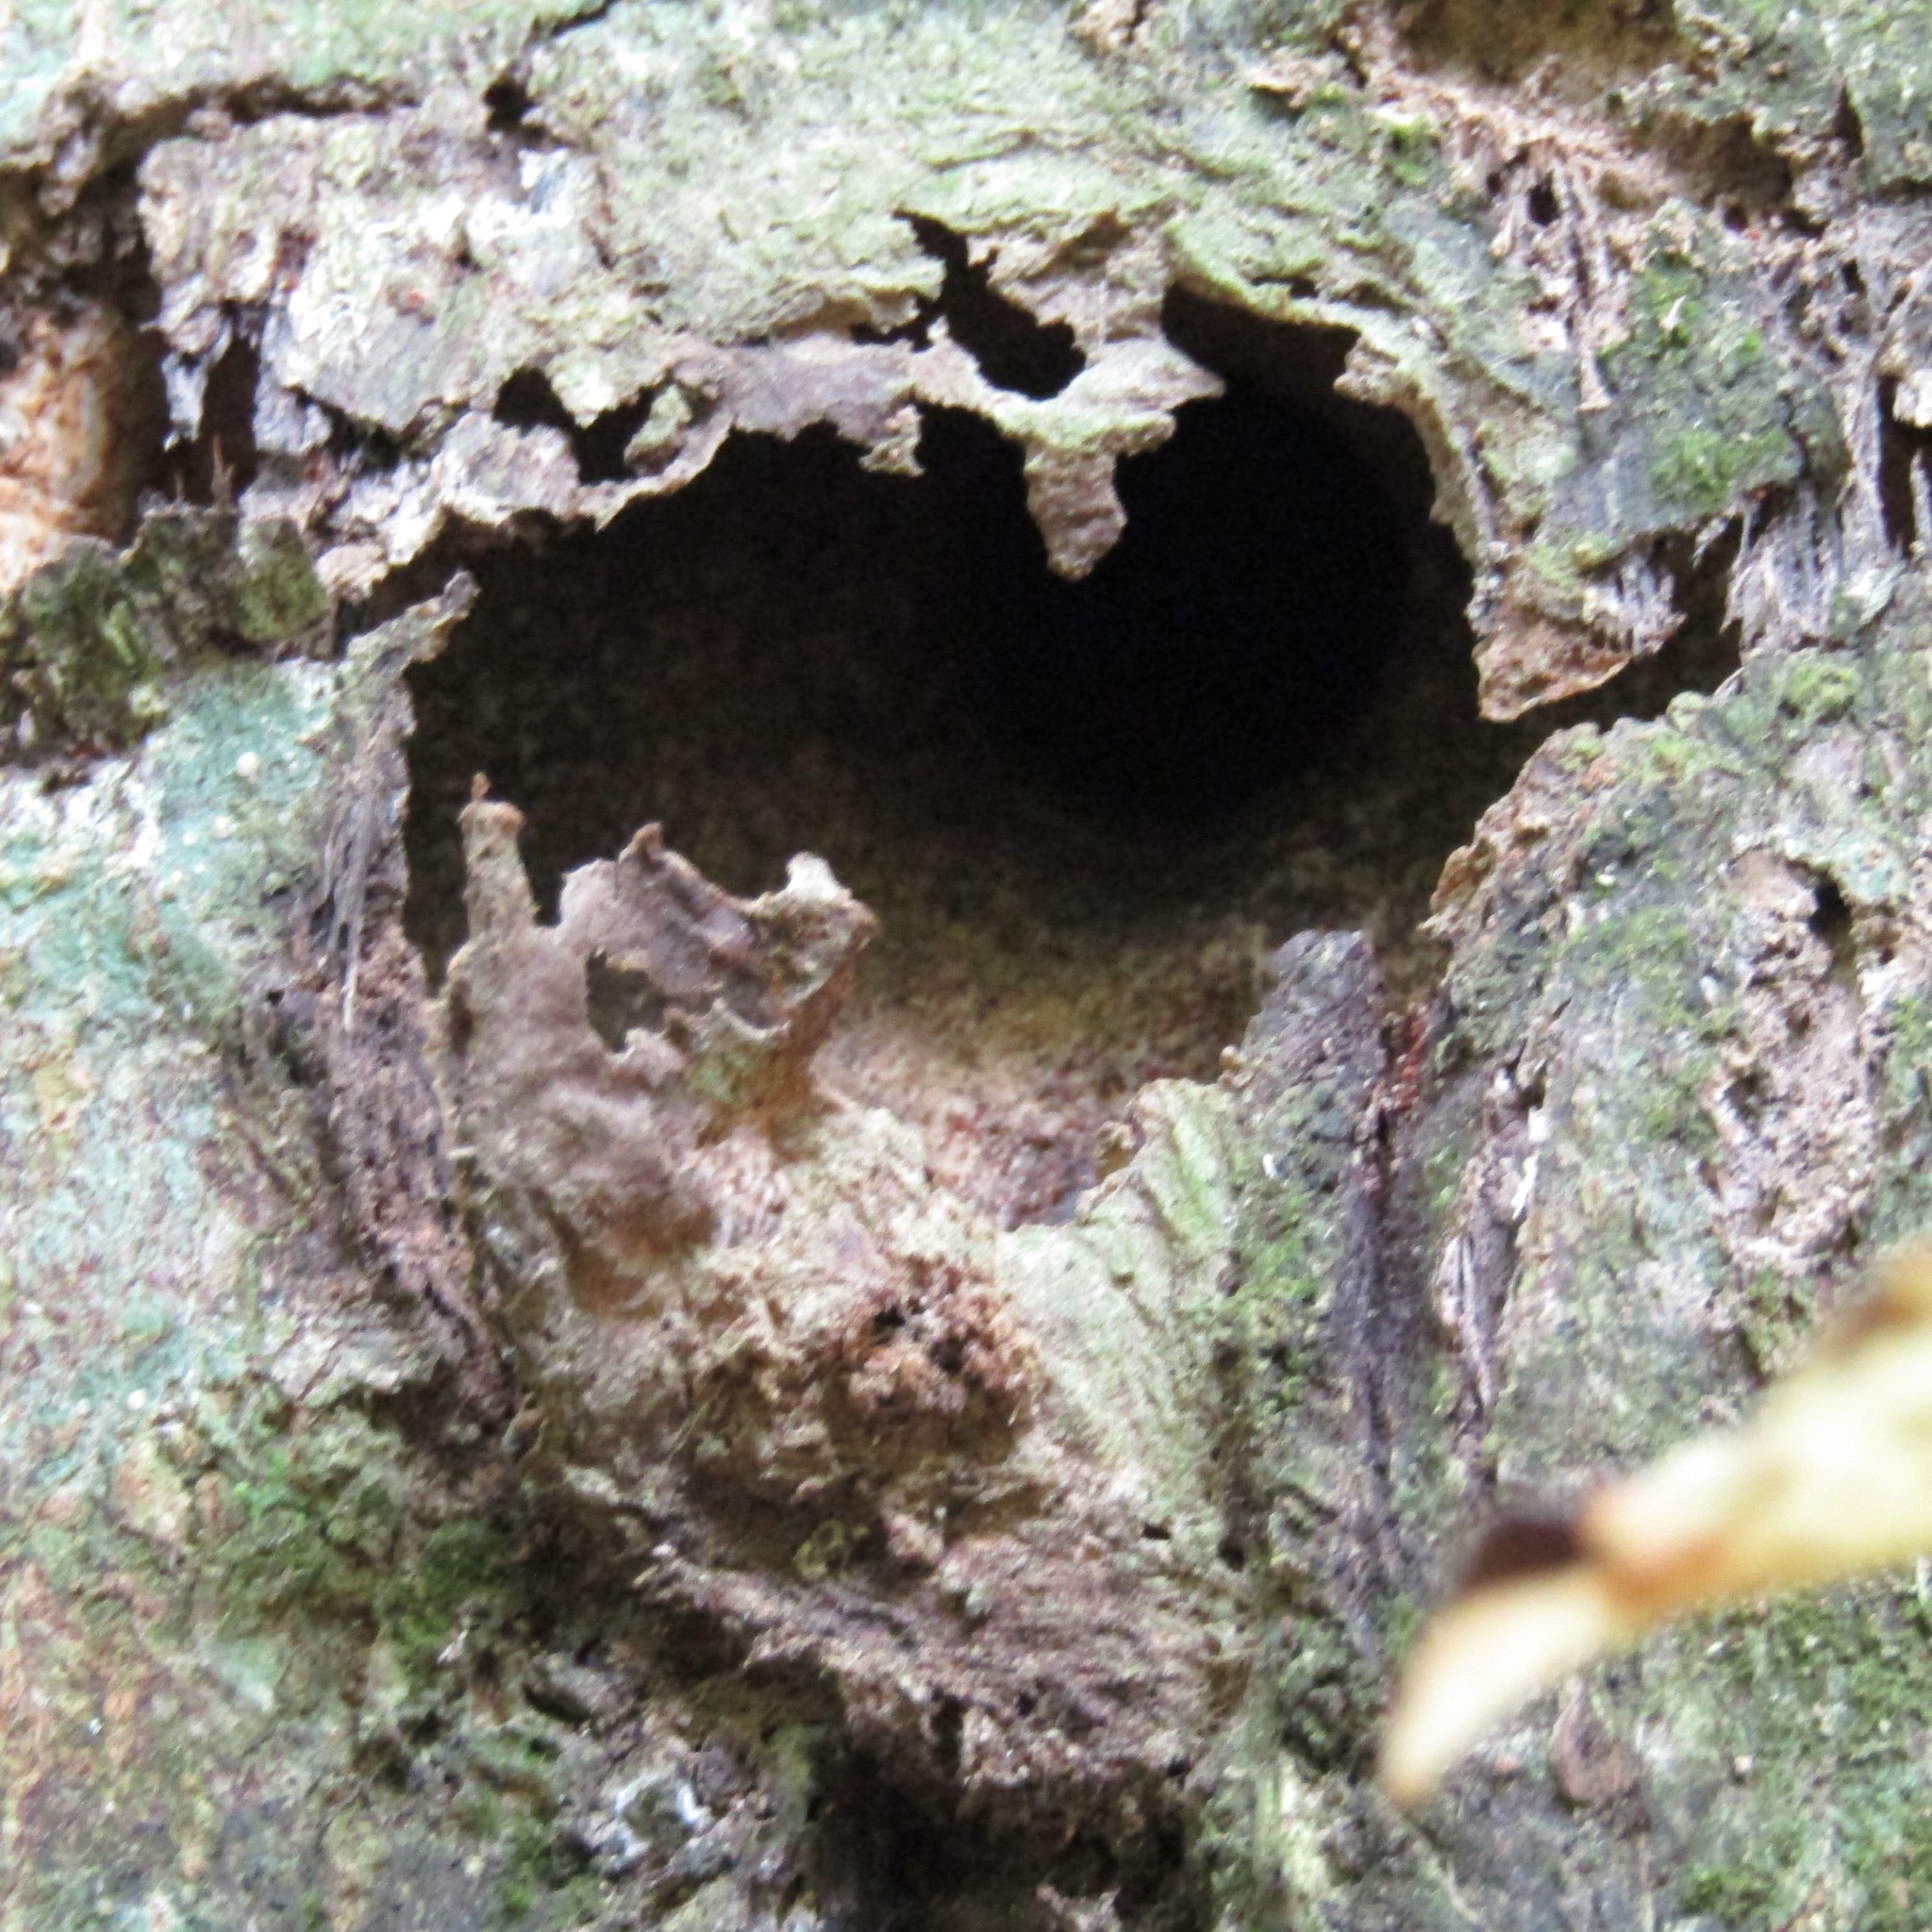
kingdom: Animalia
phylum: Arthropoda
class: Insecta
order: Lepidoptera
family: Hepialidae
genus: Aenetus
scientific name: Aenetus virescens
